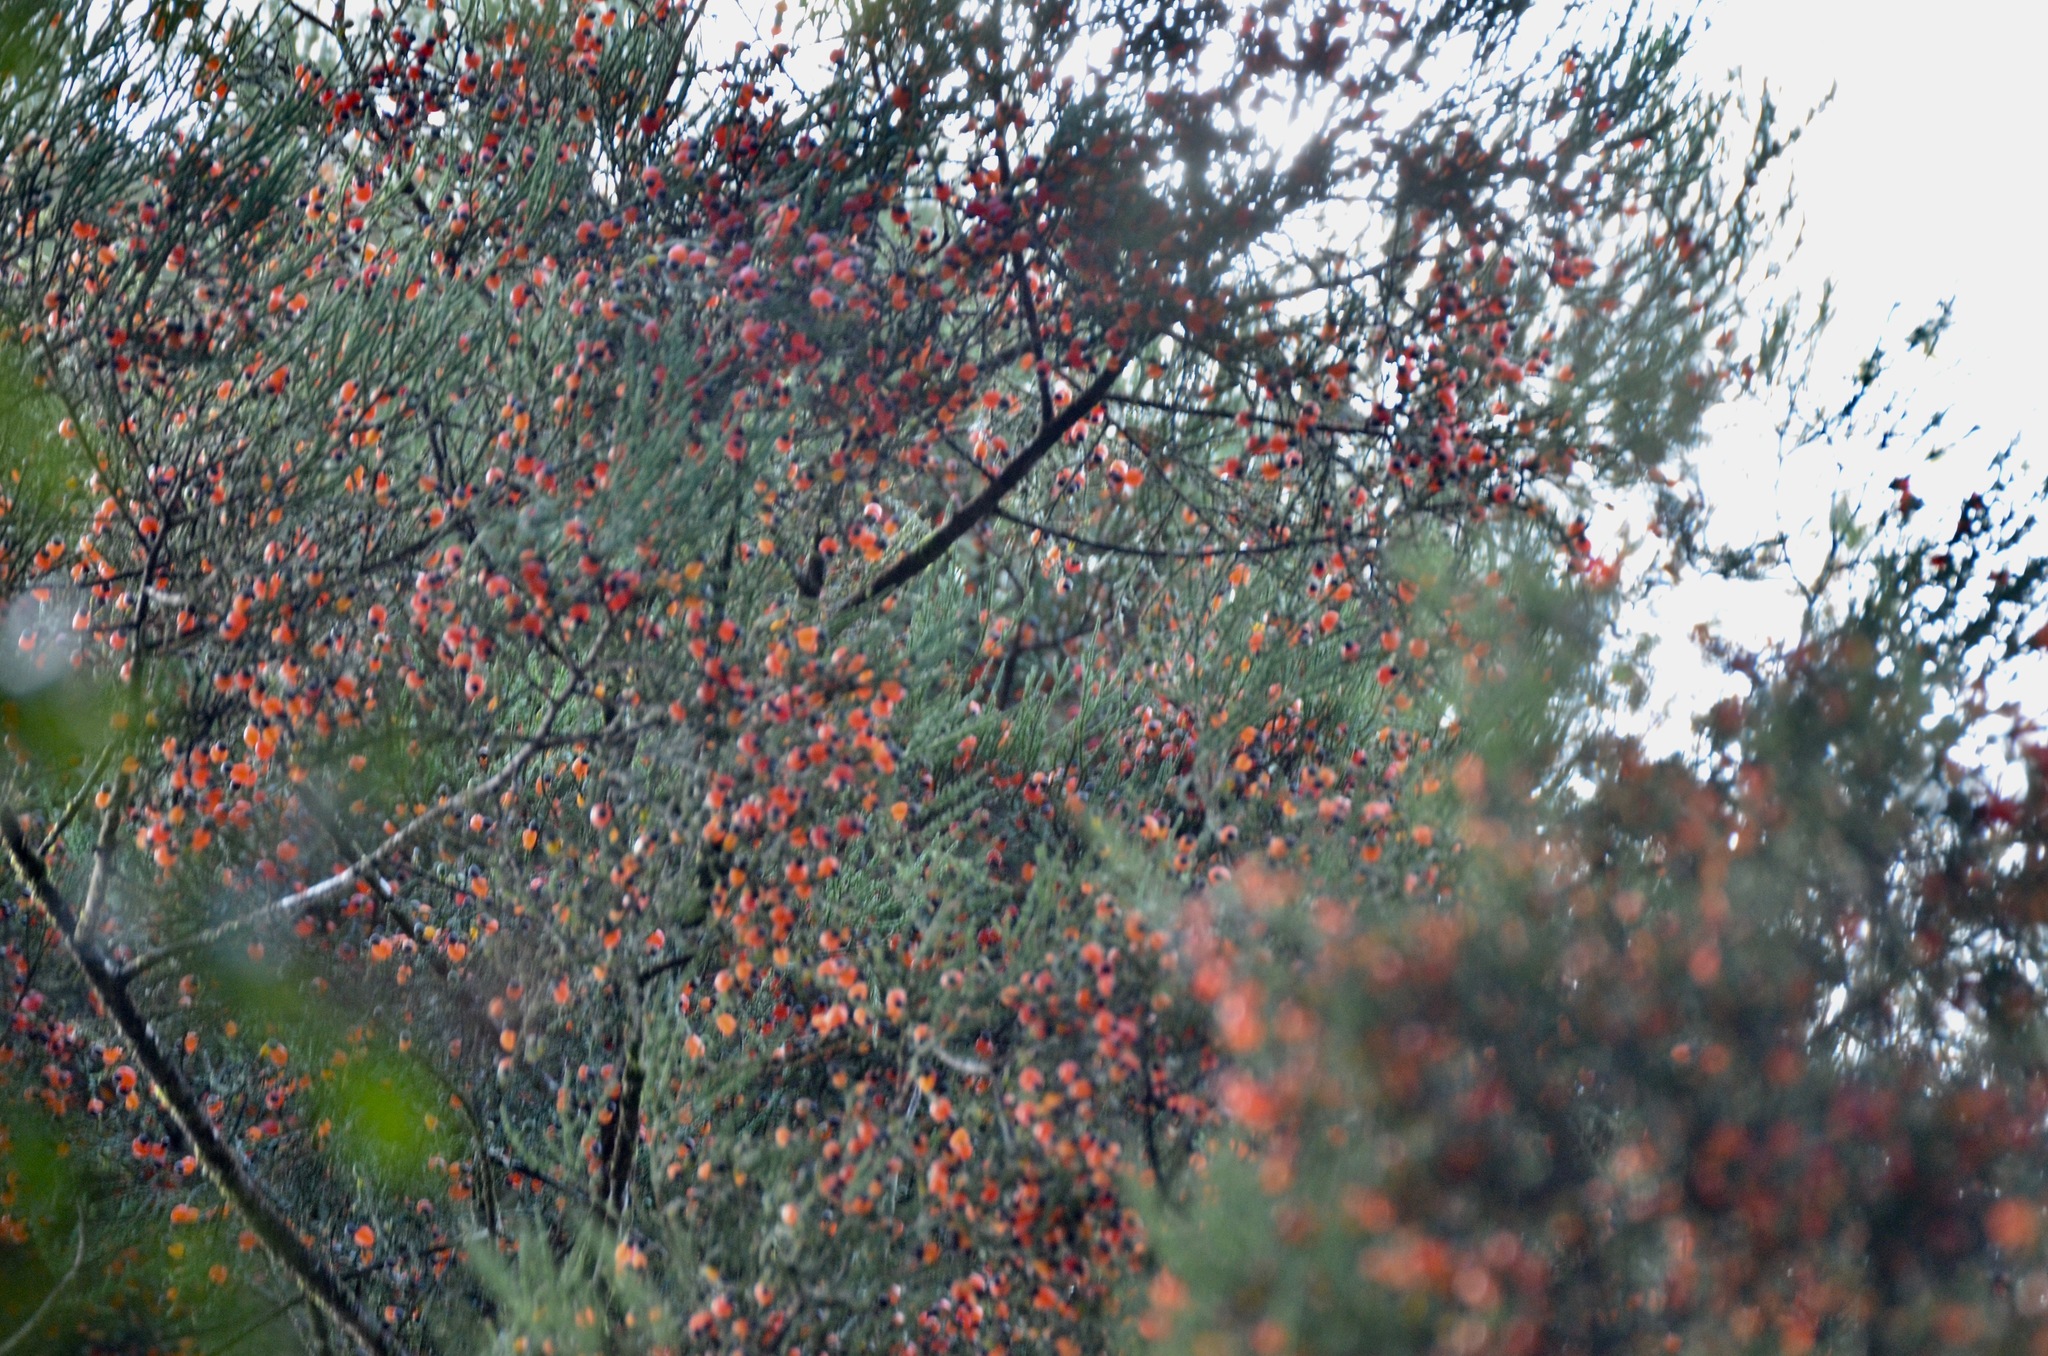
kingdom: Plantae
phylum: Tracheophyta
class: Pinopsida
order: Pinales
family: Podocarpaceae
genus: Dacrycarpus
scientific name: Dacrycarpus dacrydioides
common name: White pine
